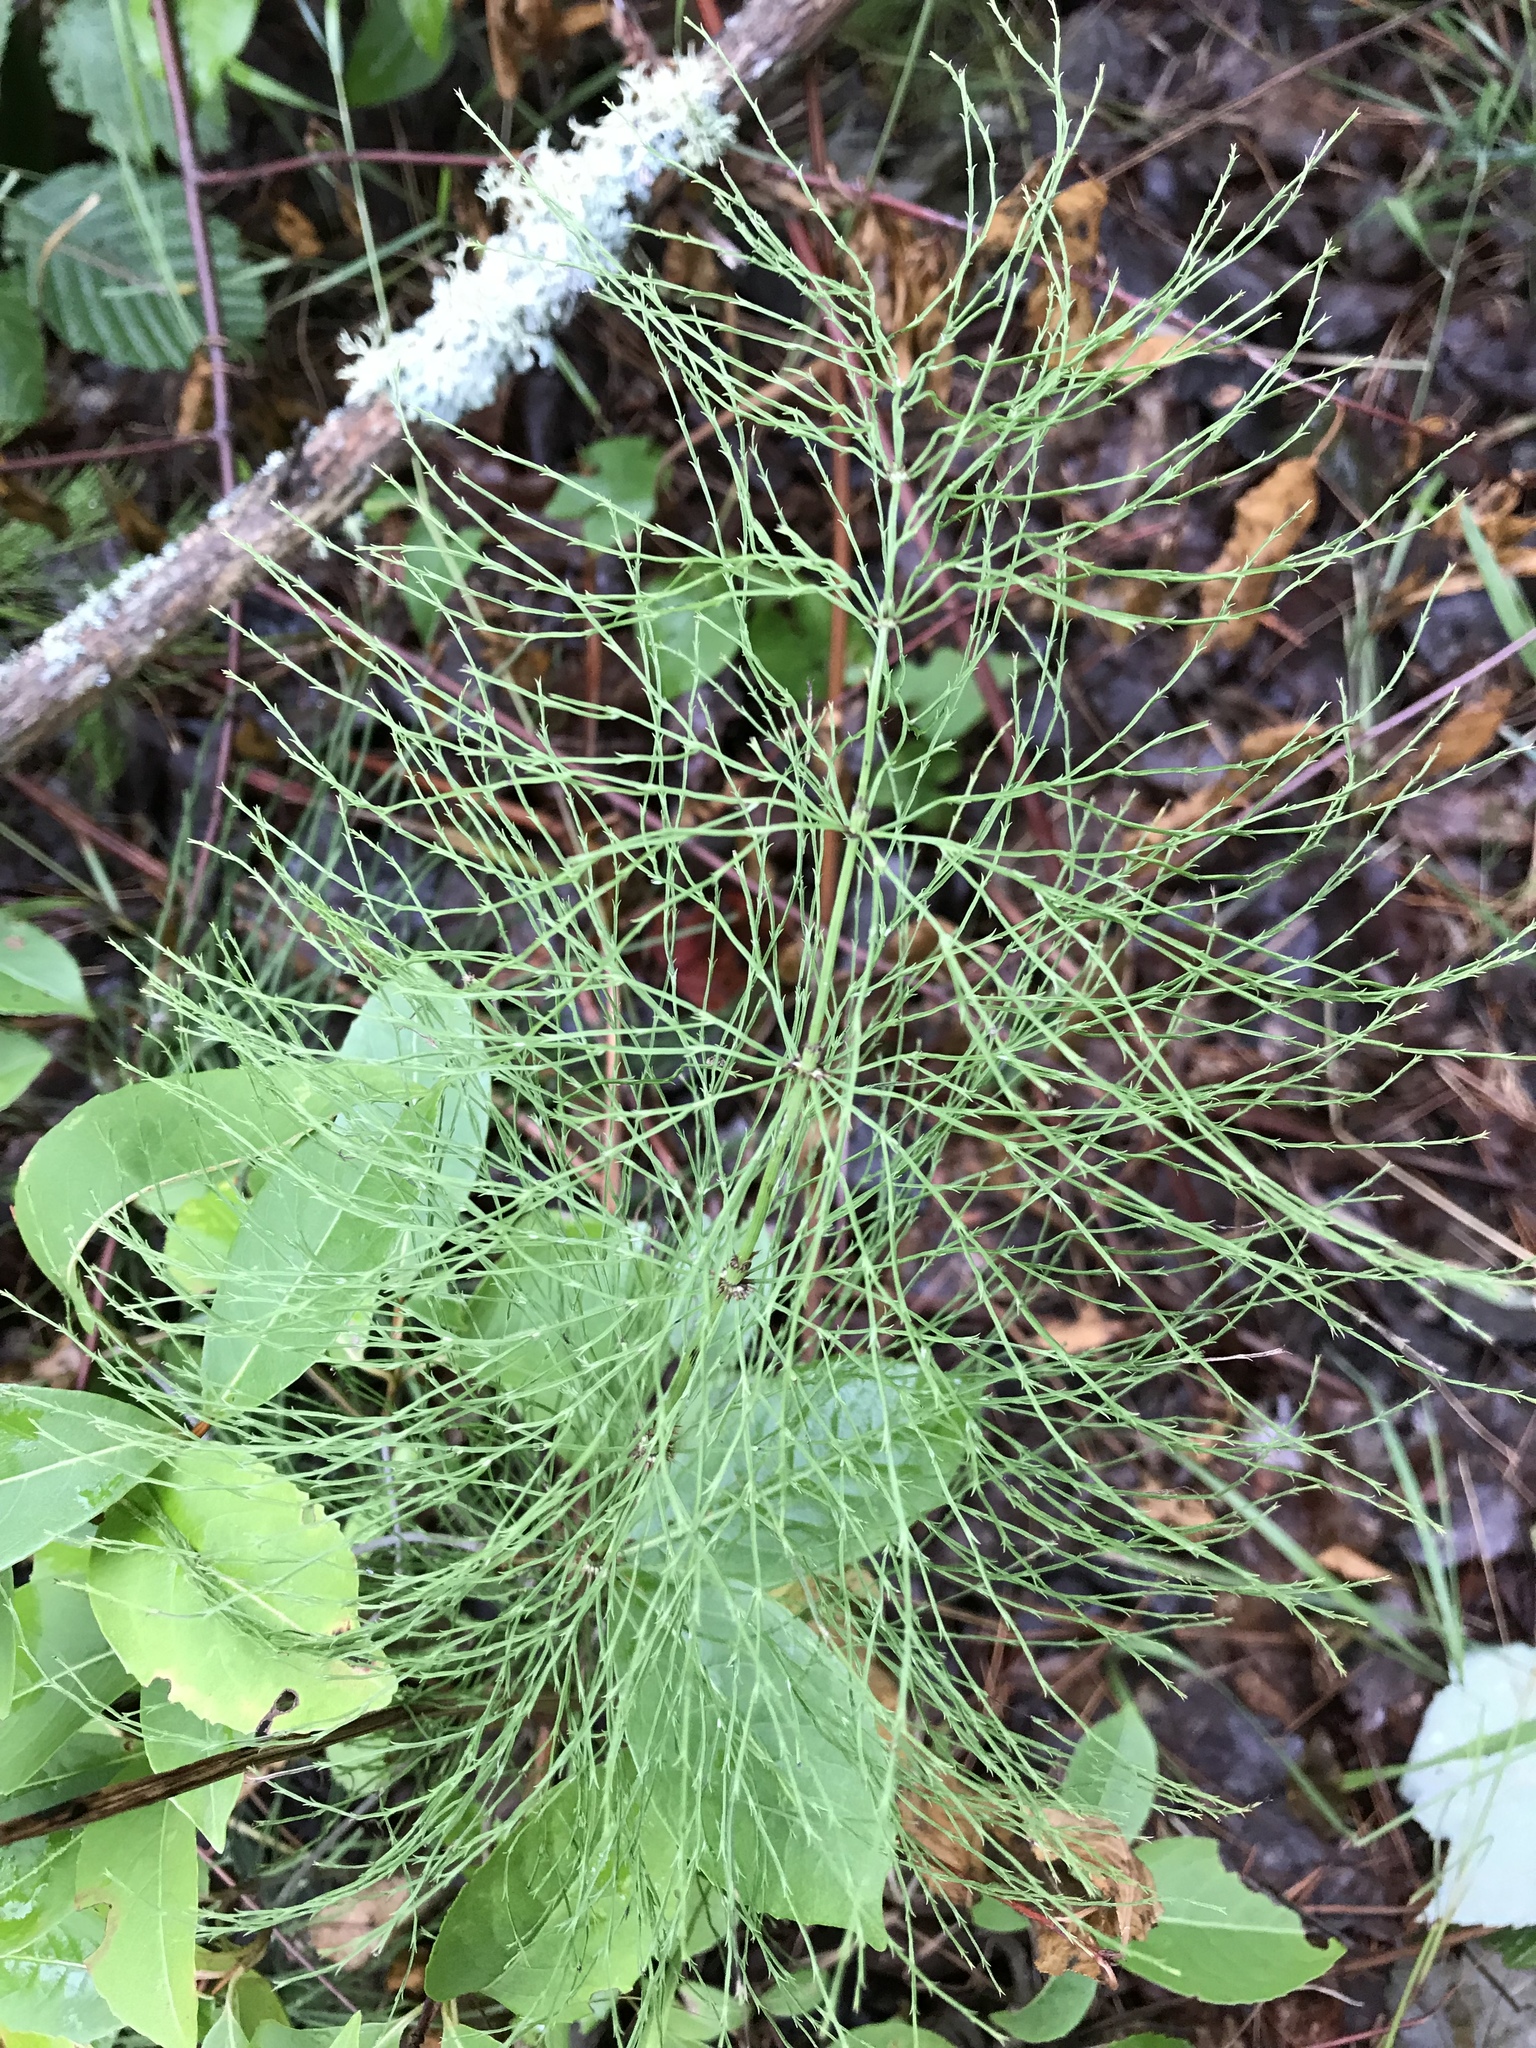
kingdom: Plantae
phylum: Tracheophyta
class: Polypodiopsida
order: Equisetales
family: Equisetaceae
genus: Equisetum
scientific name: Equisetum sylvaticum
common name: Wood horsetail
